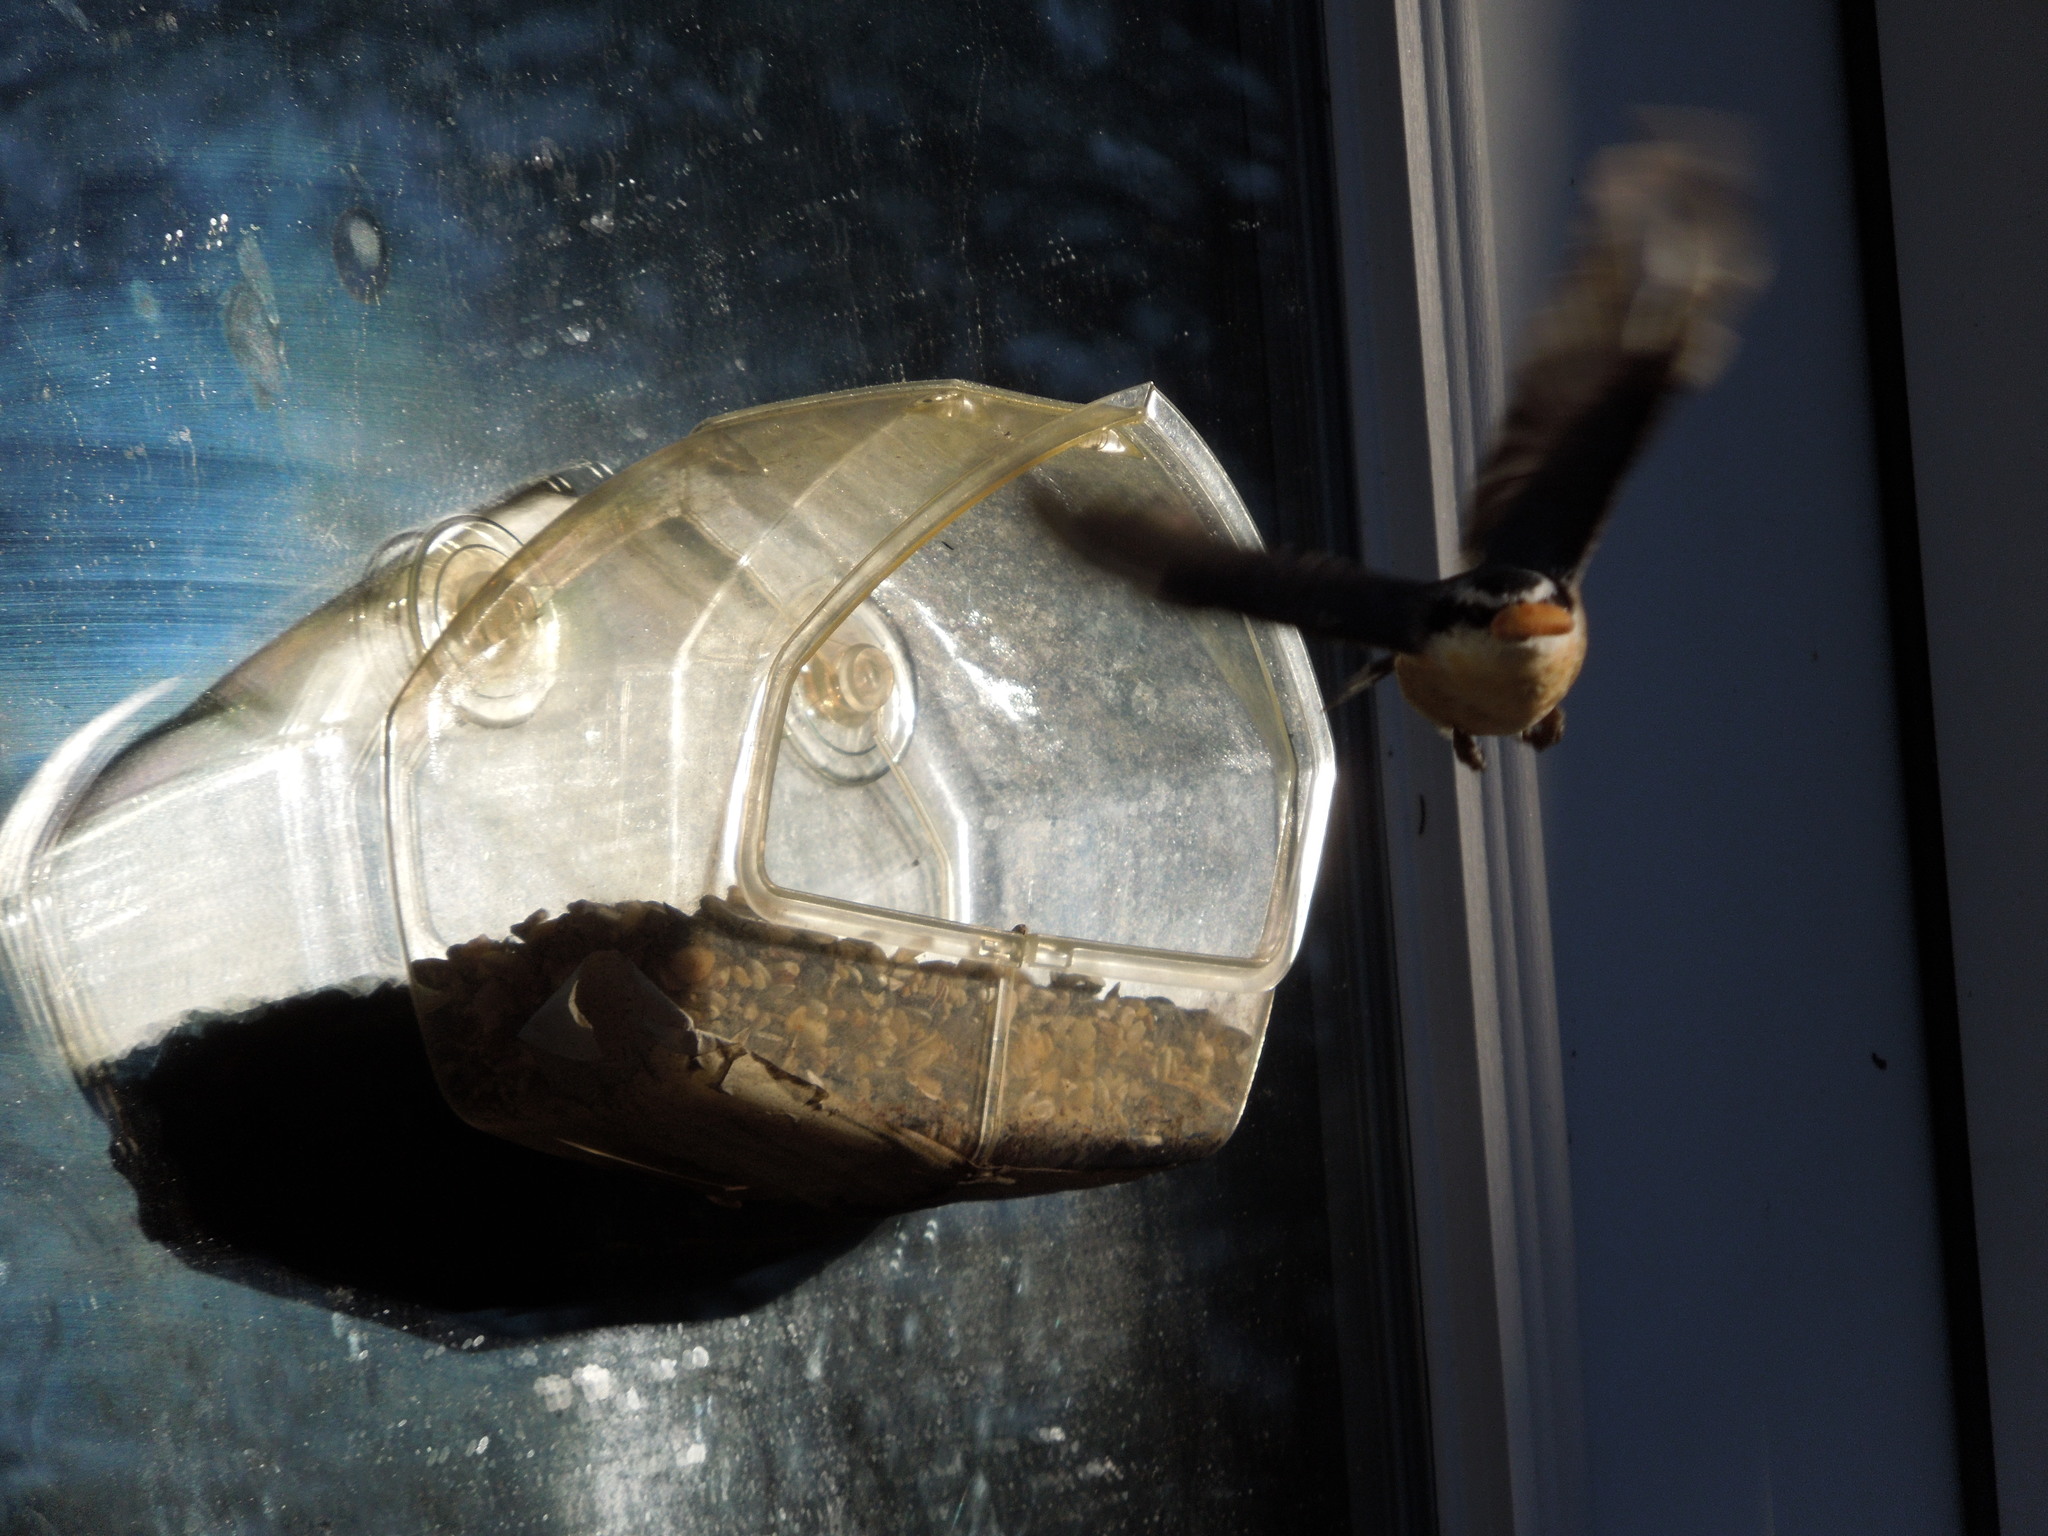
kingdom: Animalia
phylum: Chordata
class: Aves
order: Passeriformes
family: Sittidae
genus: Sitta
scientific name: Sitta canadensis
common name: Red-breasted nuthatch
